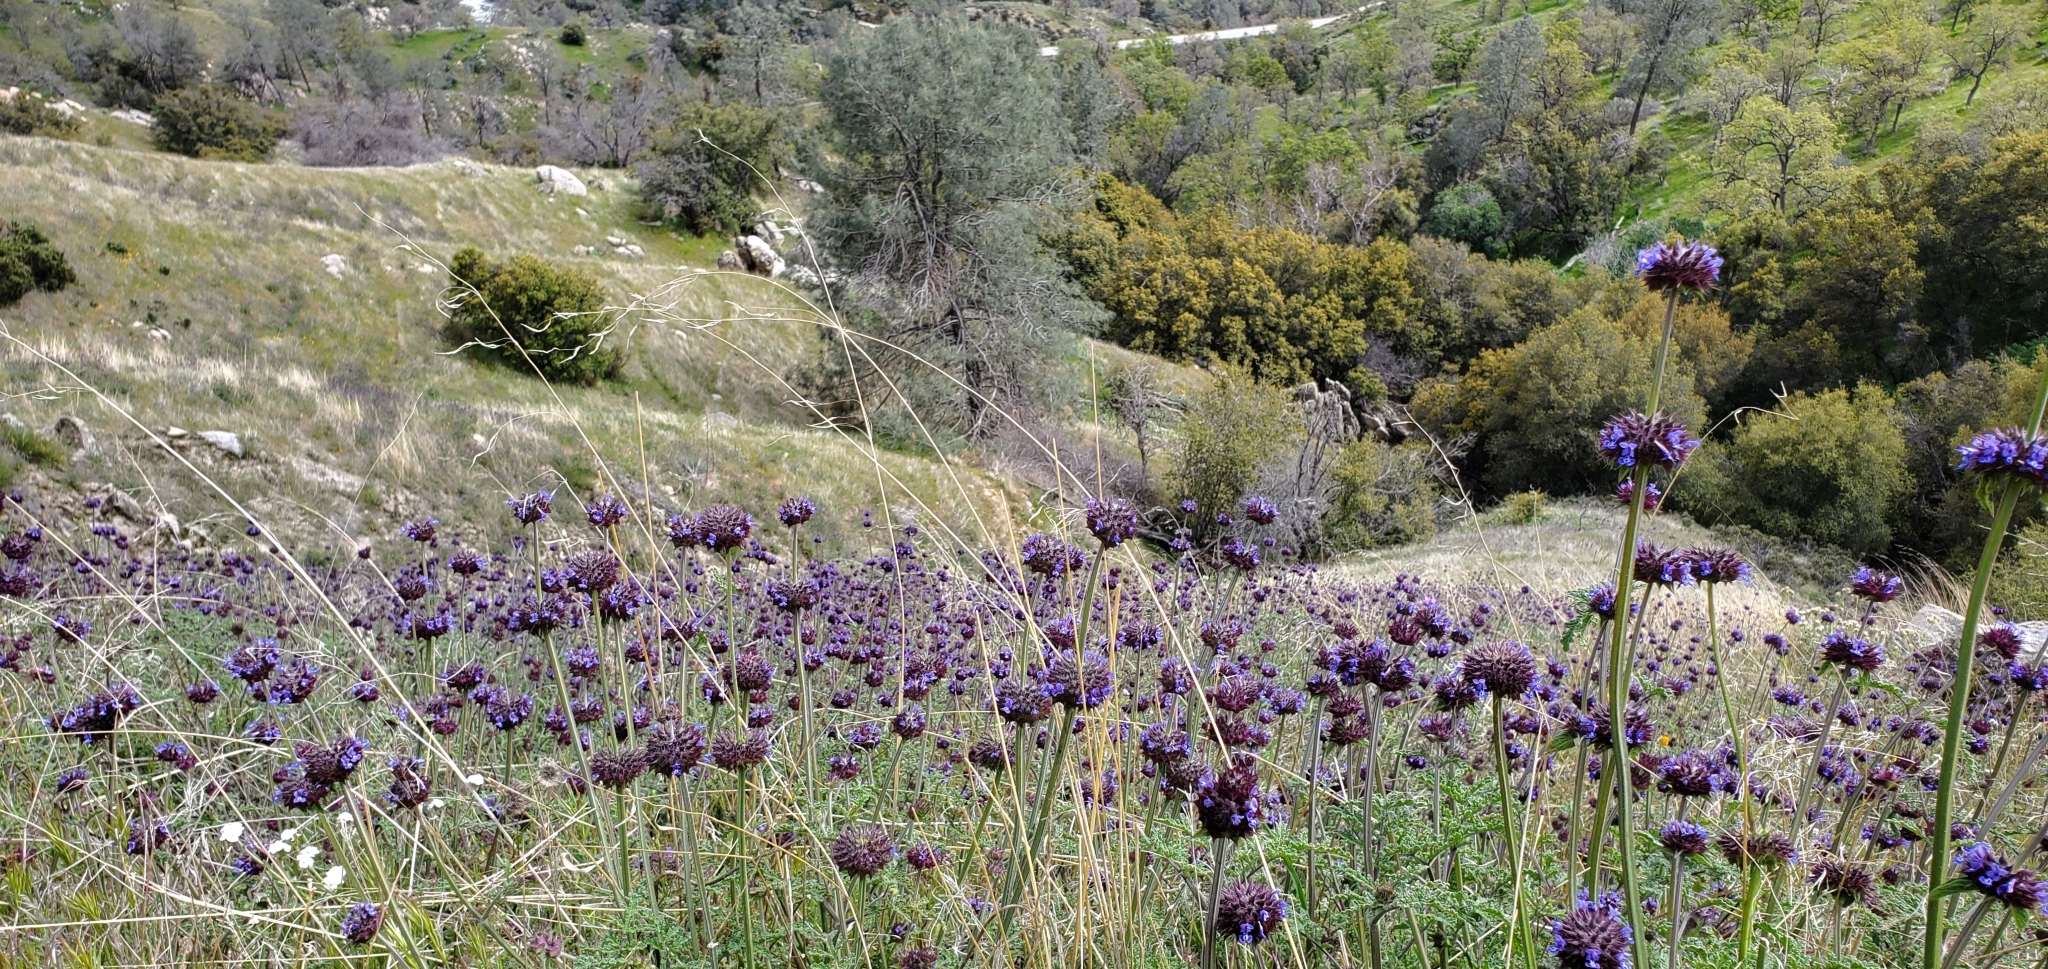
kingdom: Plantae
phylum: Tracheophyta
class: Magnoliopsida
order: Lamiales
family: Lamiaceae
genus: Salvia
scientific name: Salvia columbariae
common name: Chia
